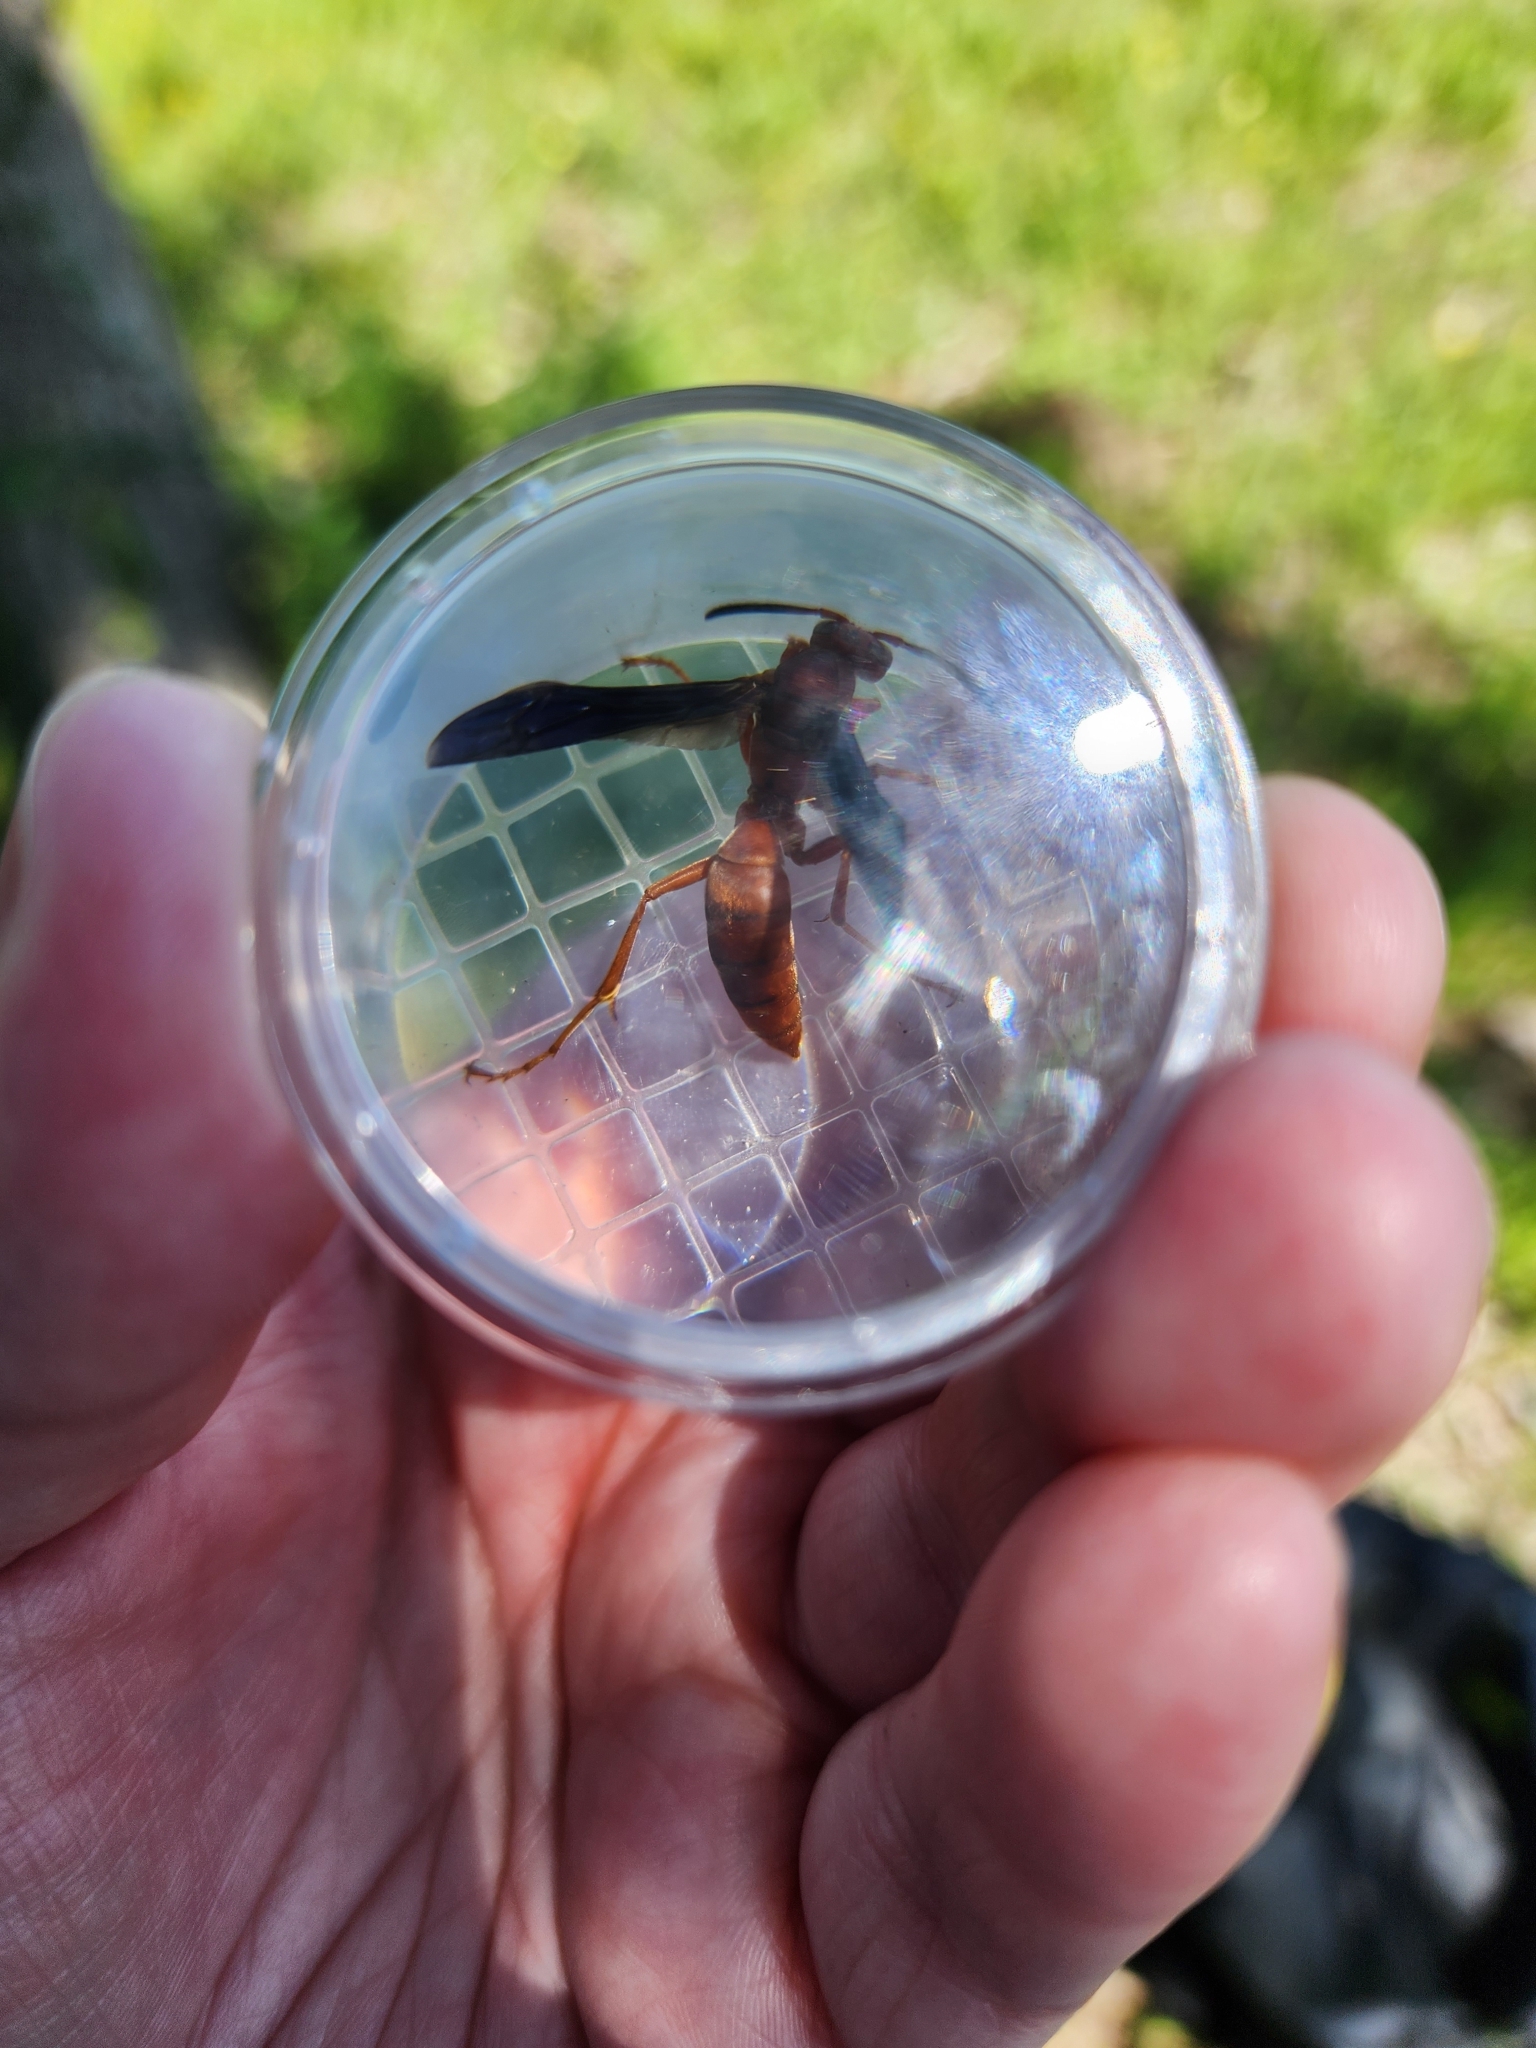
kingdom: Animalia
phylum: Arthropoda
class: Insecta
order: Hymenoptera
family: Vespidae
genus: Fuscopolistes
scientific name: Fuscopolistes
